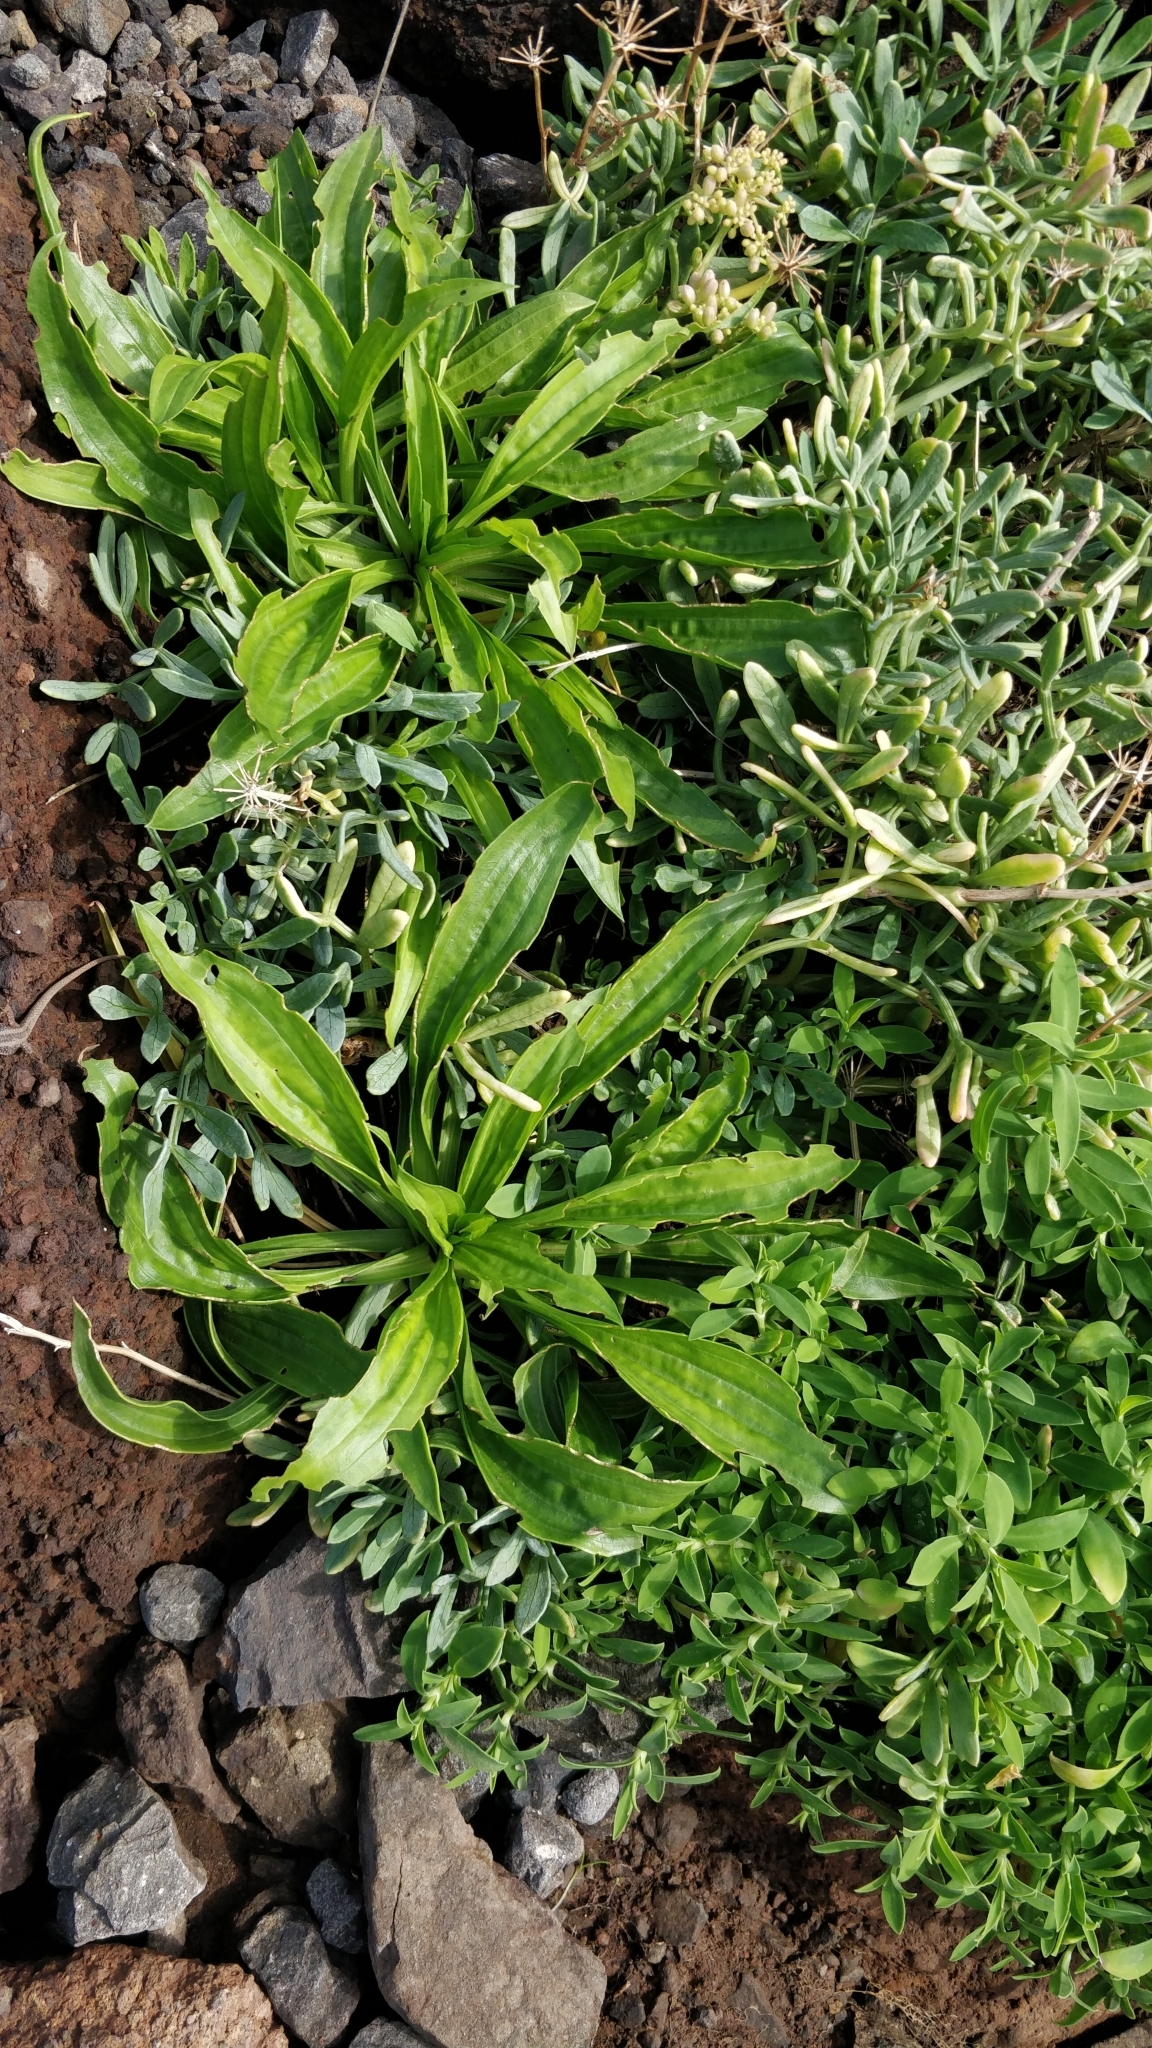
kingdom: Plantae
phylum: Tracheophyta
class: Magnoliopsida
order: Lamiales
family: Plantaginaceae
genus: Plantago
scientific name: Plantago lanceolata
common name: Ribwort plantain
